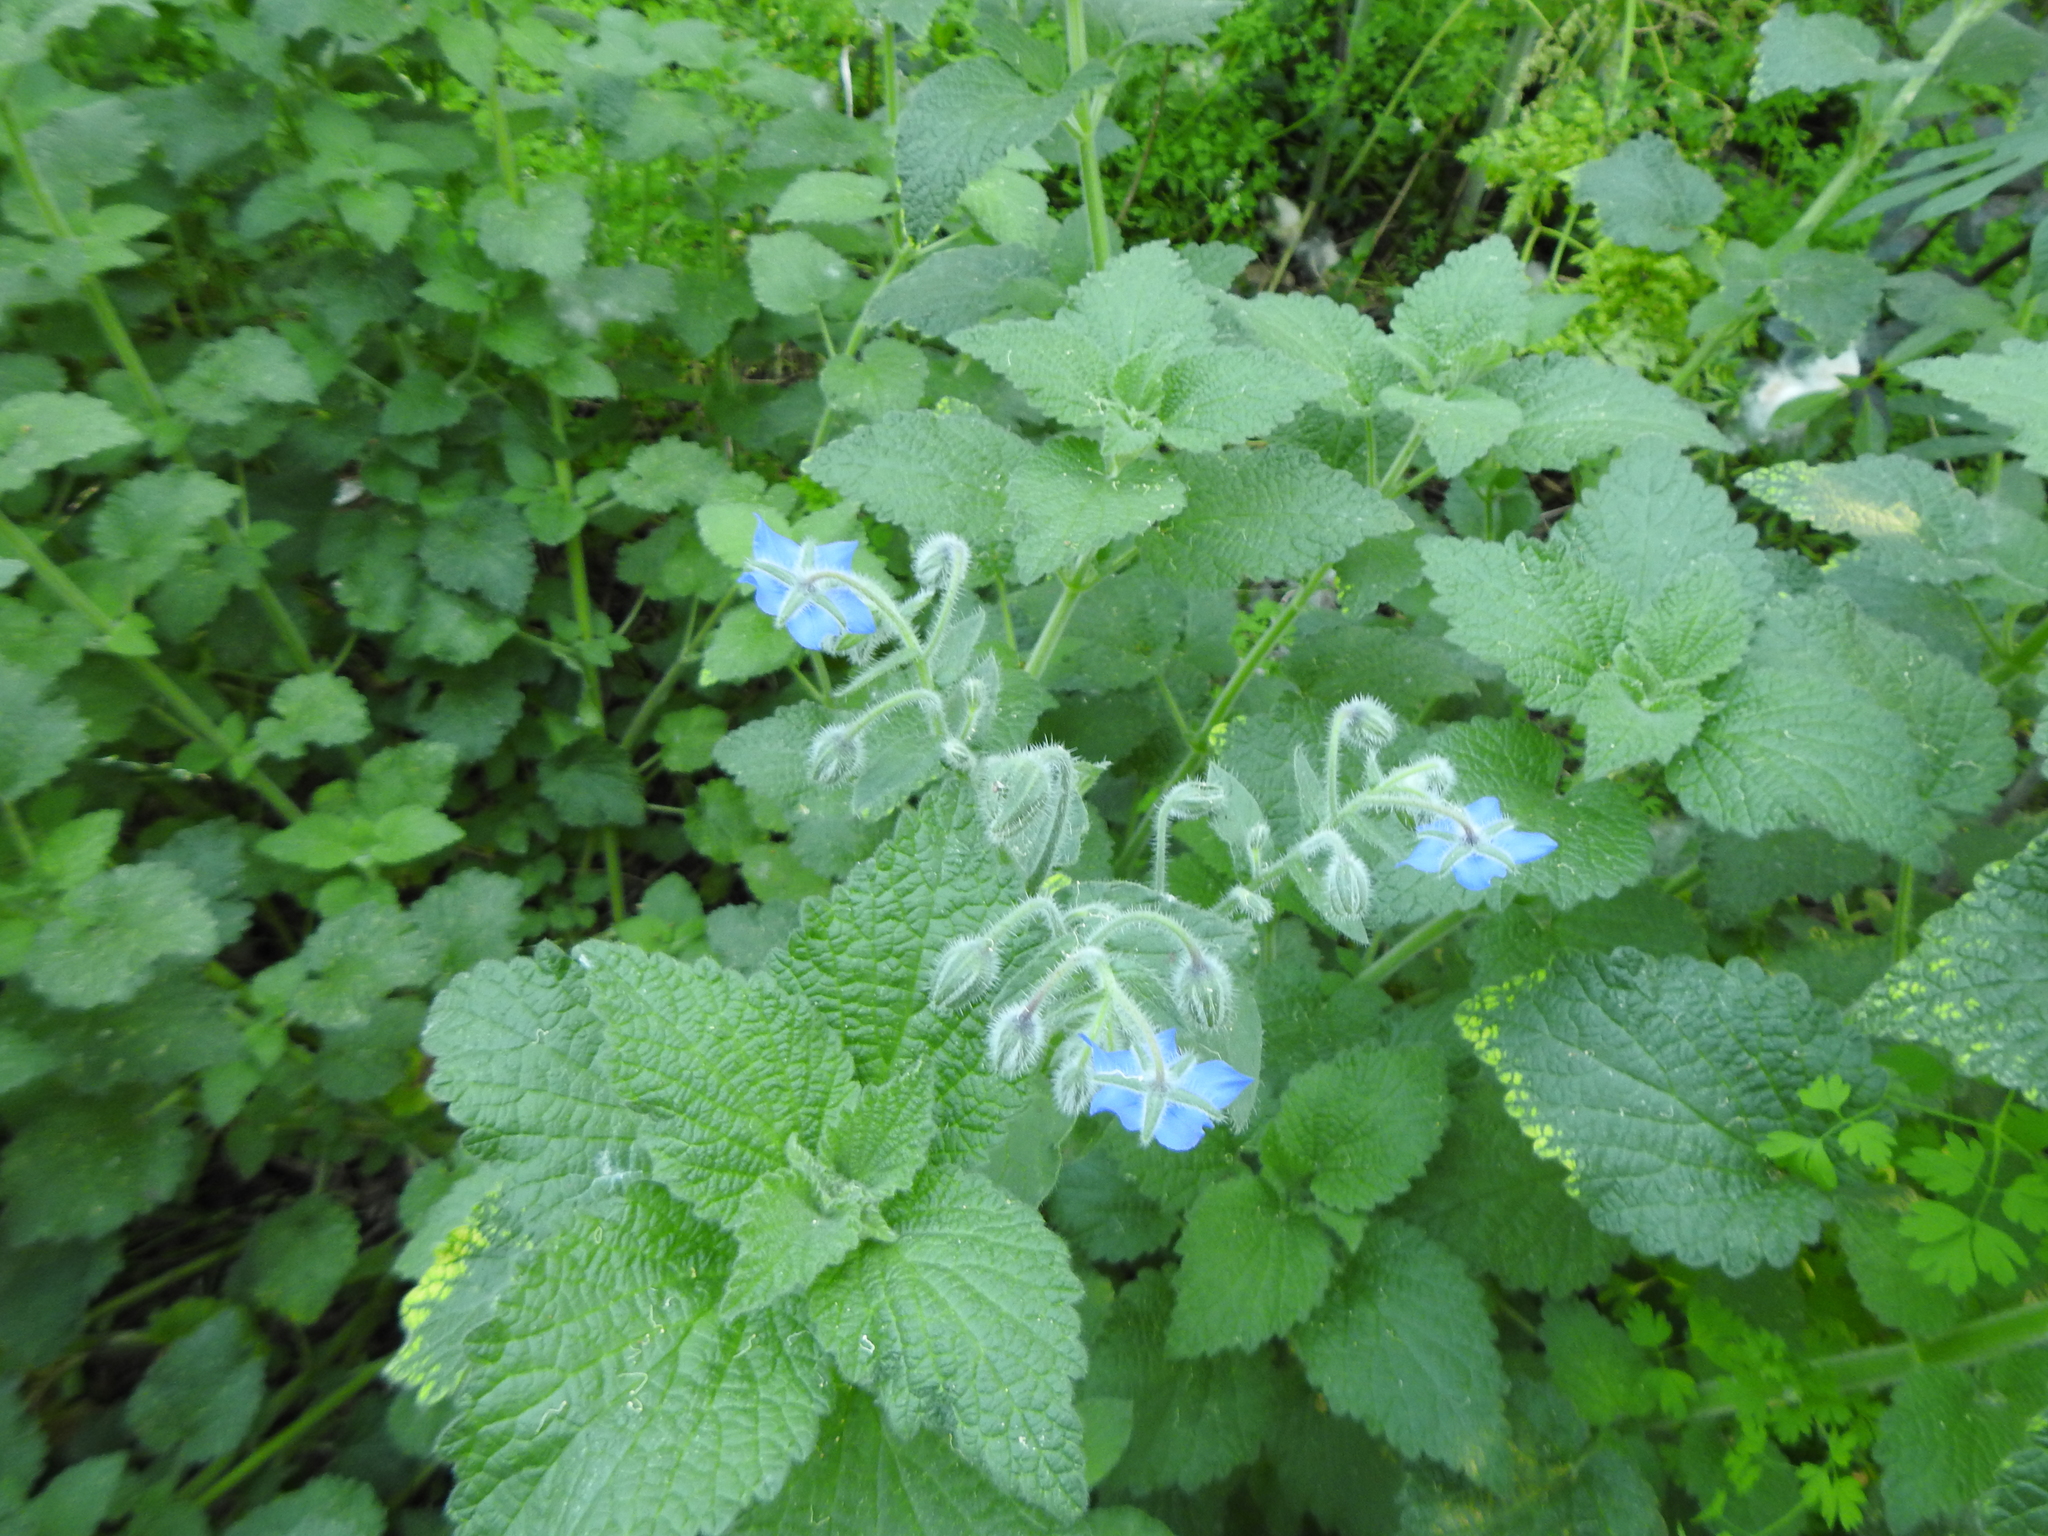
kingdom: Plantae
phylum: Tracheophyta
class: Magnoliopsida
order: Boraginales
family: Boraginaceae
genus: Borago
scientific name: Borago officinalis
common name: Borage
